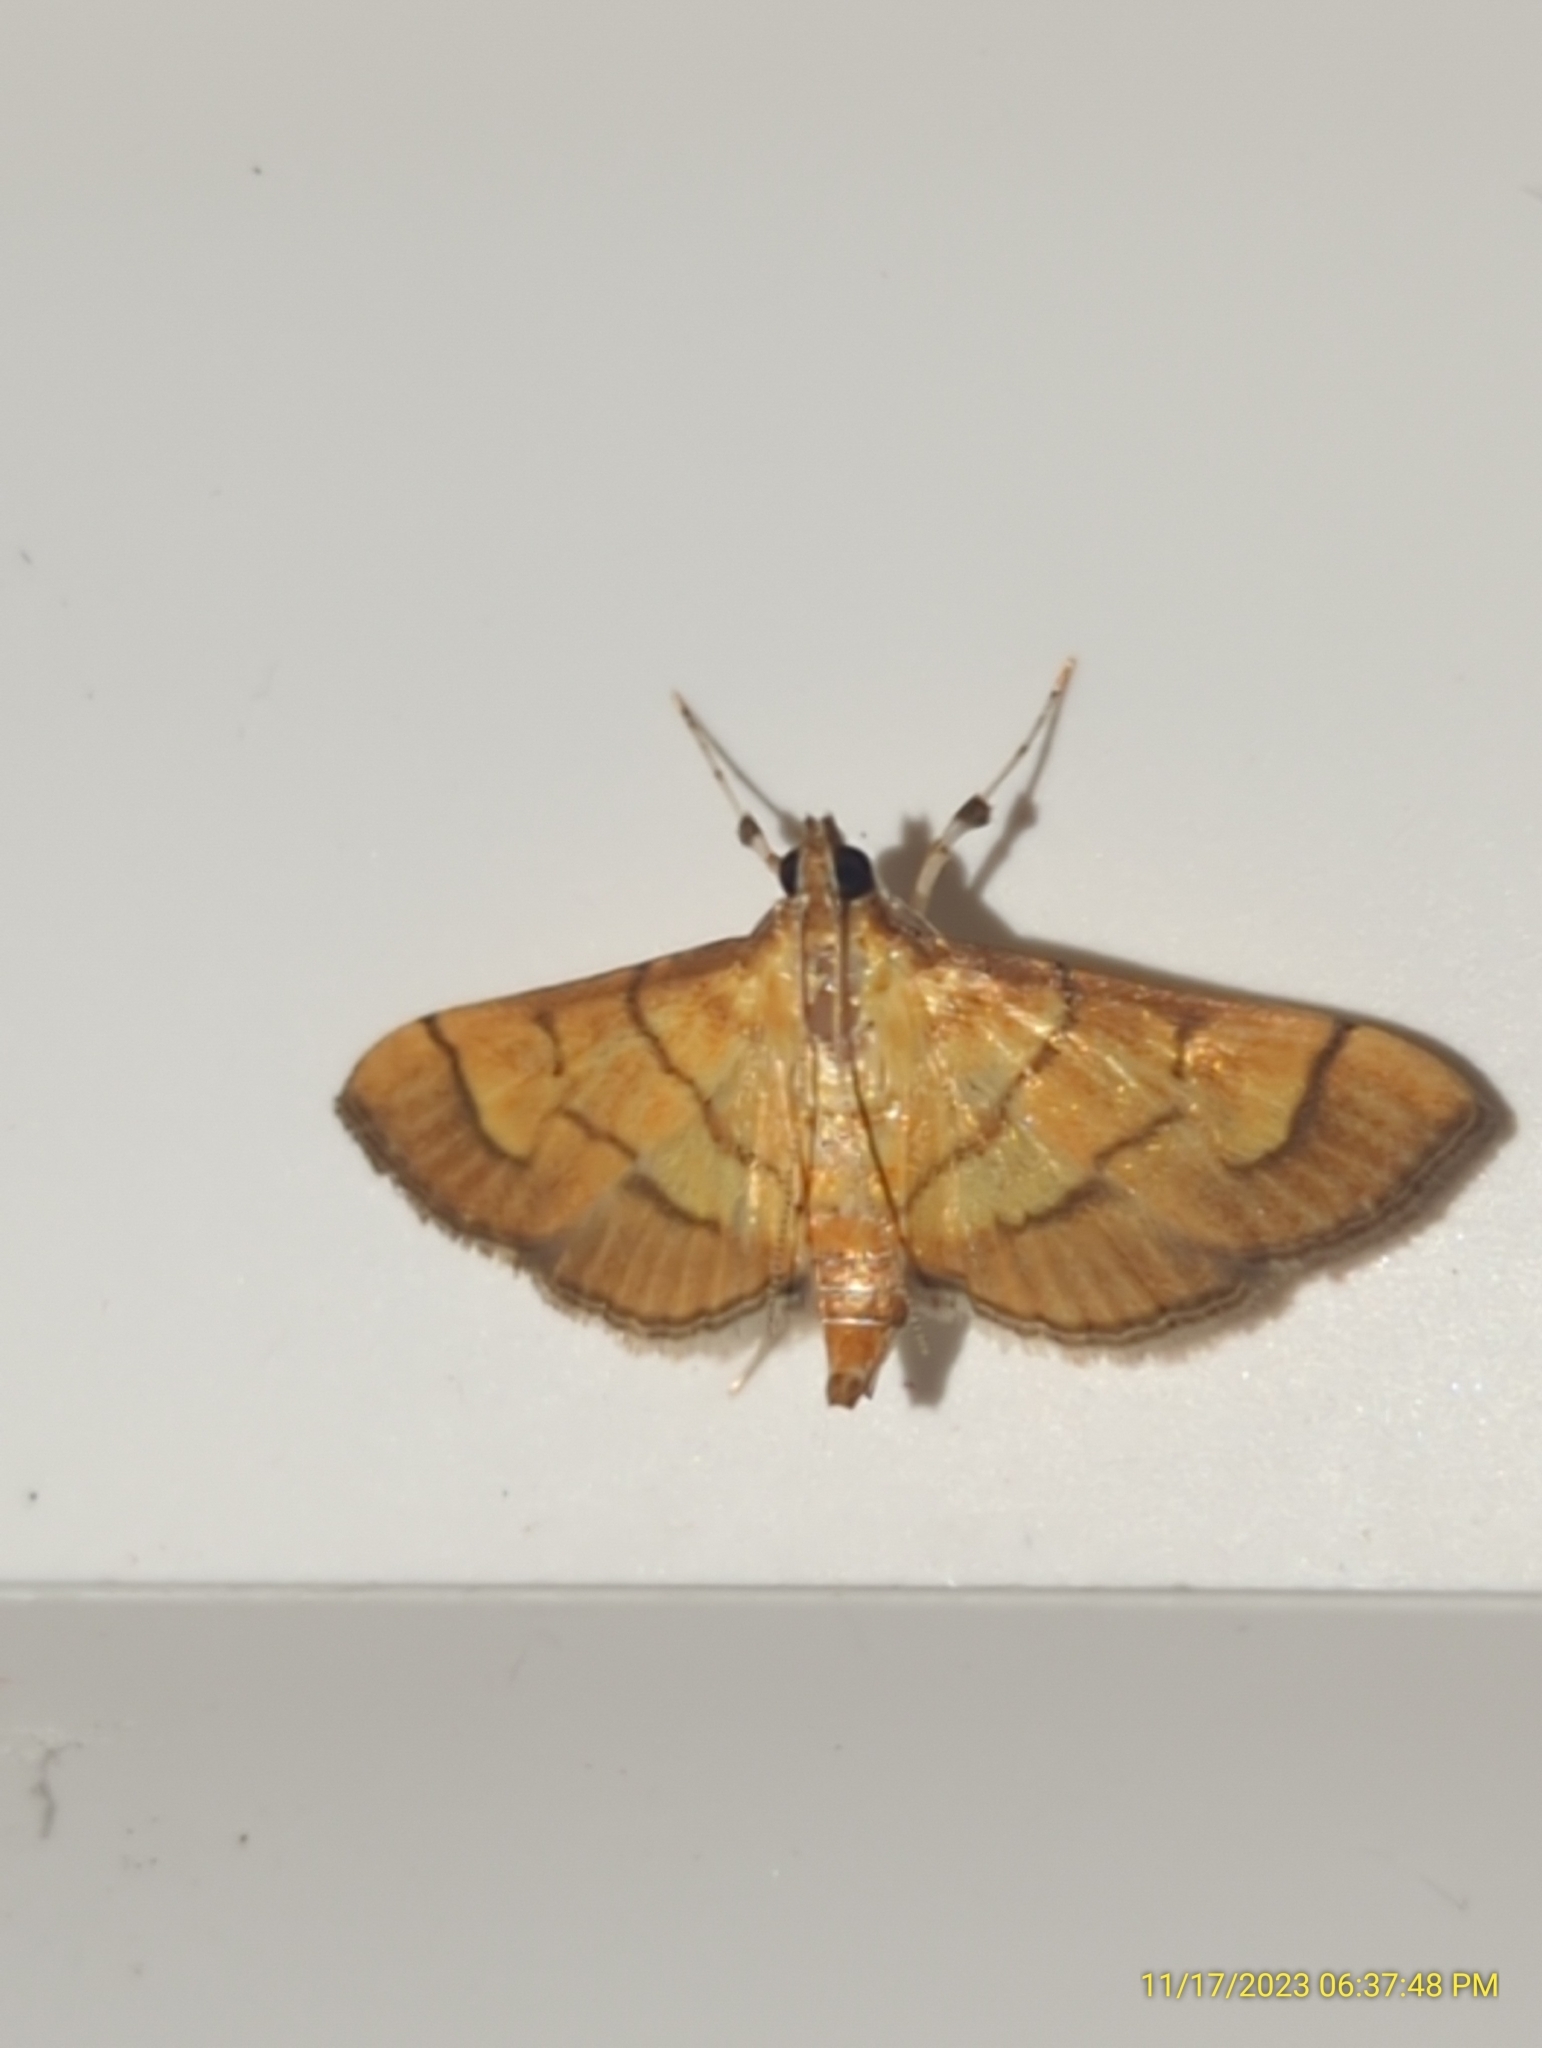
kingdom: Animalia
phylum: Arthropoda
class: Insecta
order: Lepidoptera
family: Crambidae
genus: Salbia
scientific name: Salbia haemorrhoidalis
